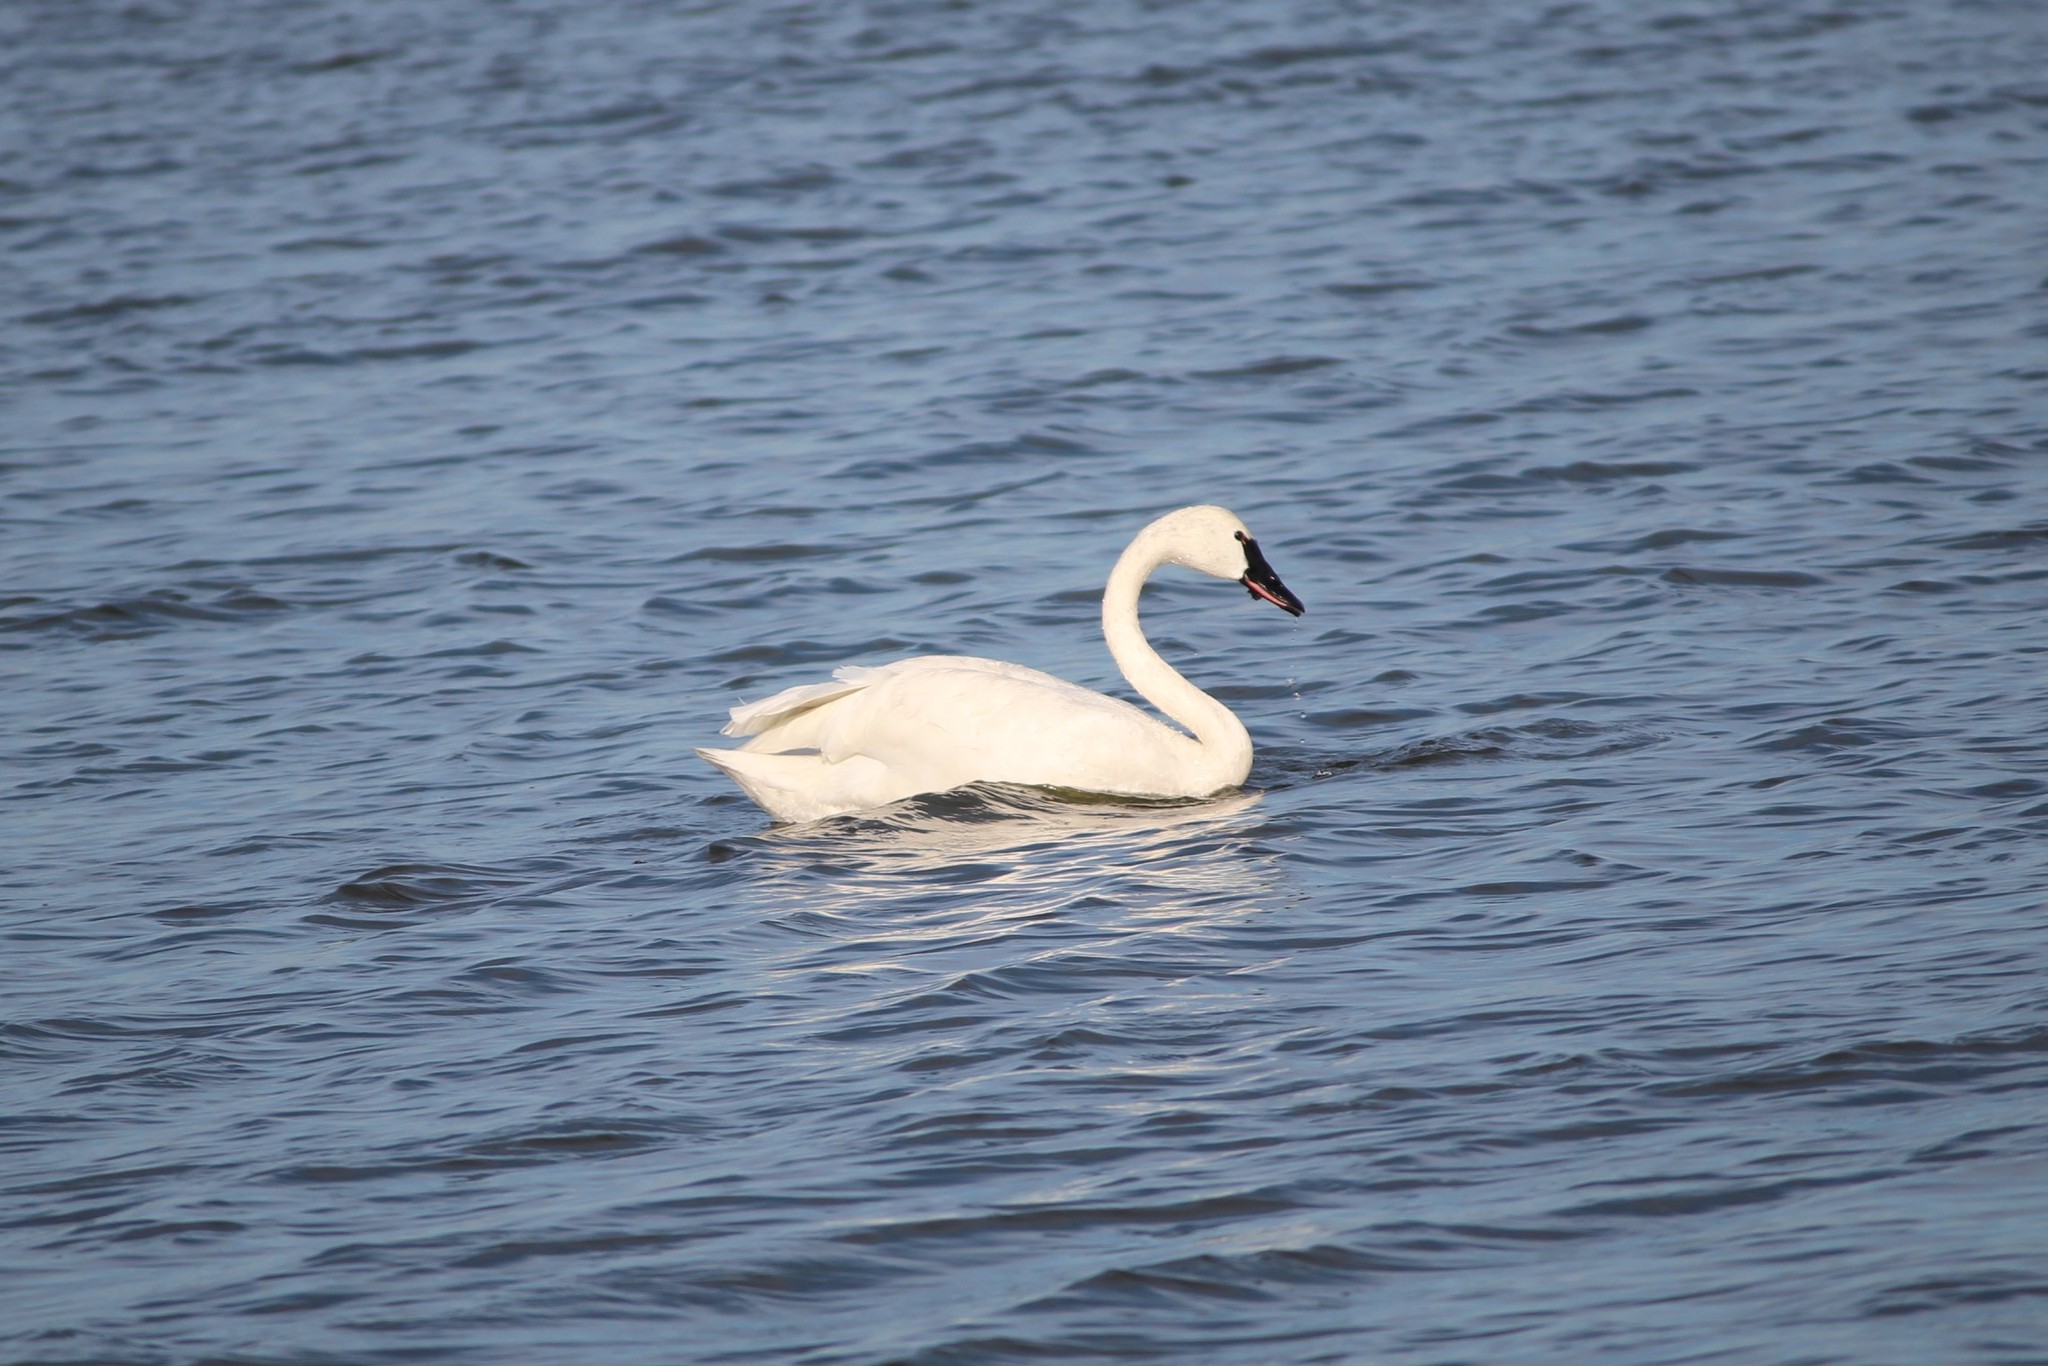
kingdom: Animalia
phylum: Chordata
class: Aves
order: Anseriformes
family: Anatidae
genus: Cygnus
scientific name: Cygnus columbianus
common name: Tundra swan
